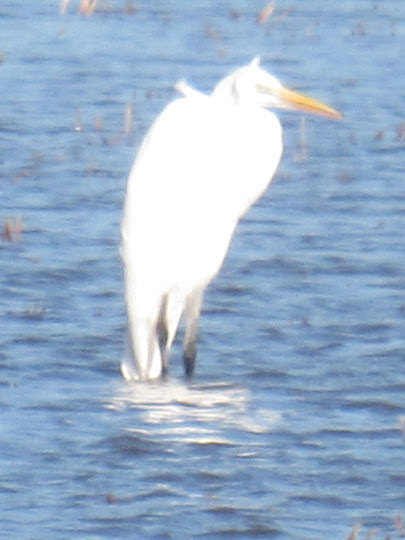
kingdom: Animalia
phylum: Chordata
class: Aves
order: Pelecaniformes
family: Ardeidae
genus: Ardea
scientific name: Ardea alba
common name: Great egret
